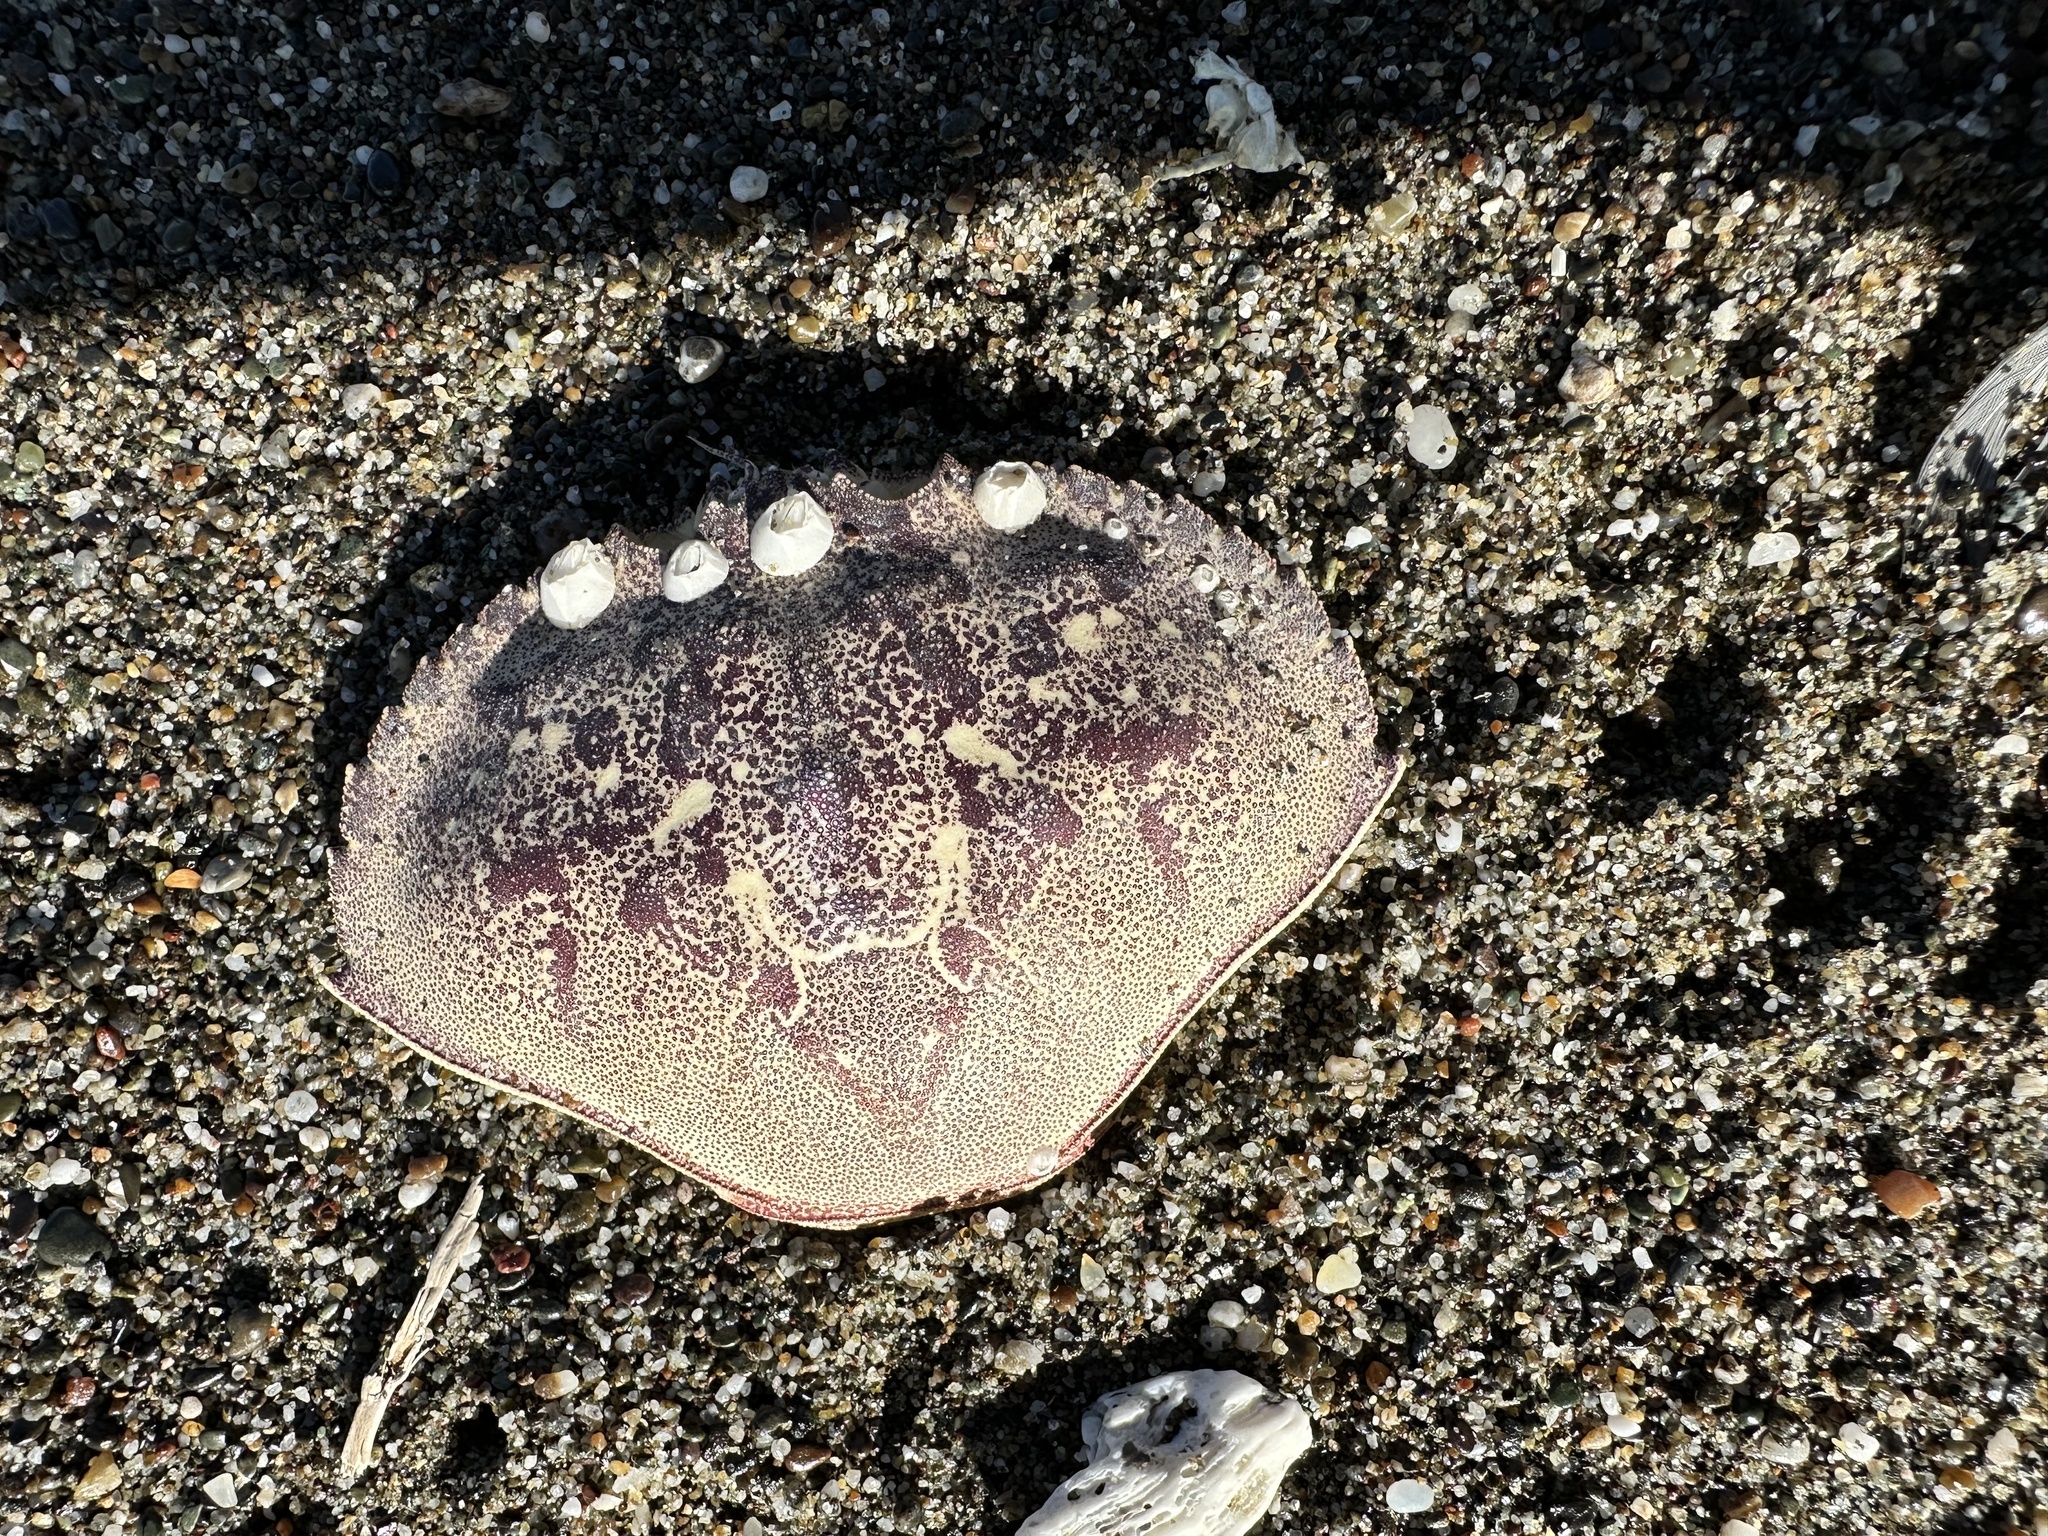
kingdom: Animalia
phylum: Arthropoda
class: Malacostraca
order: Decapoda
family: Cancridae
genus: Metacarcinus
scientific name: Metacarcinus magister
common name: Californian crab
